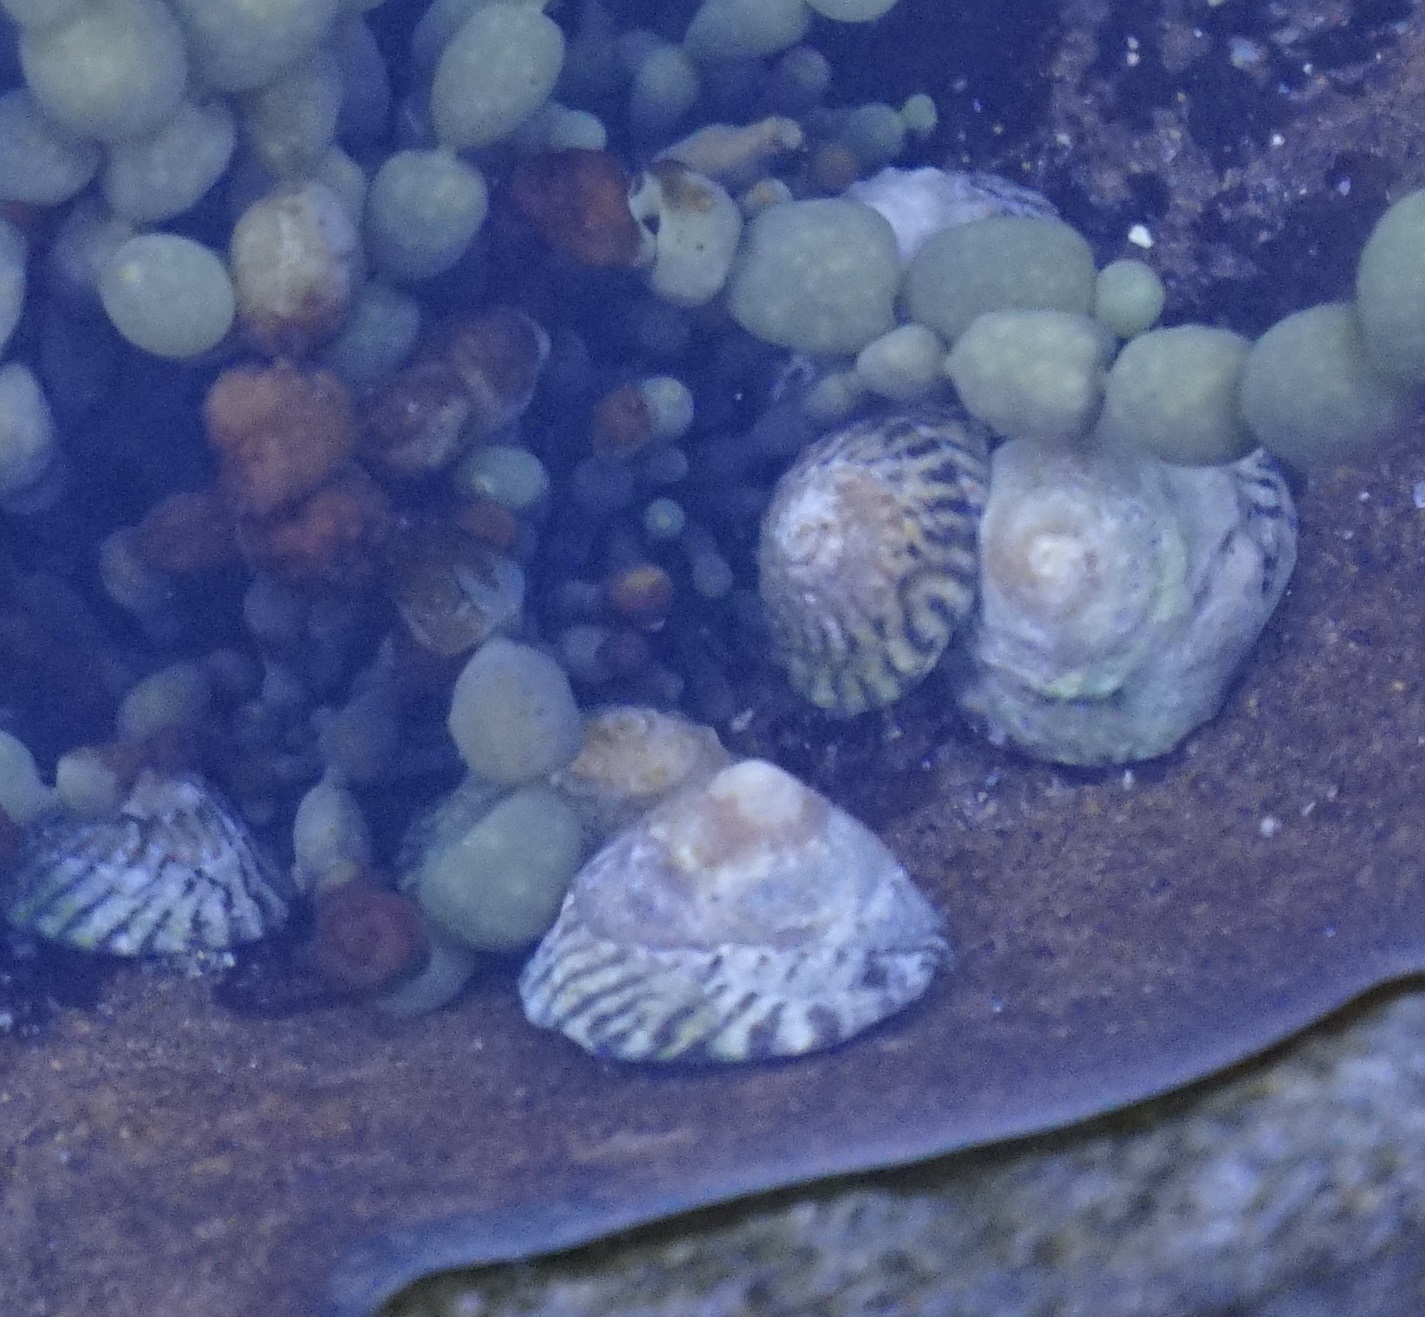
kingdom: Animalia
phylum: Mollusca
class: Gastropoda
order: Littorinimorpha
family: Littorinidae
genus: Bembicium
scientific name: Bembicium nanum
